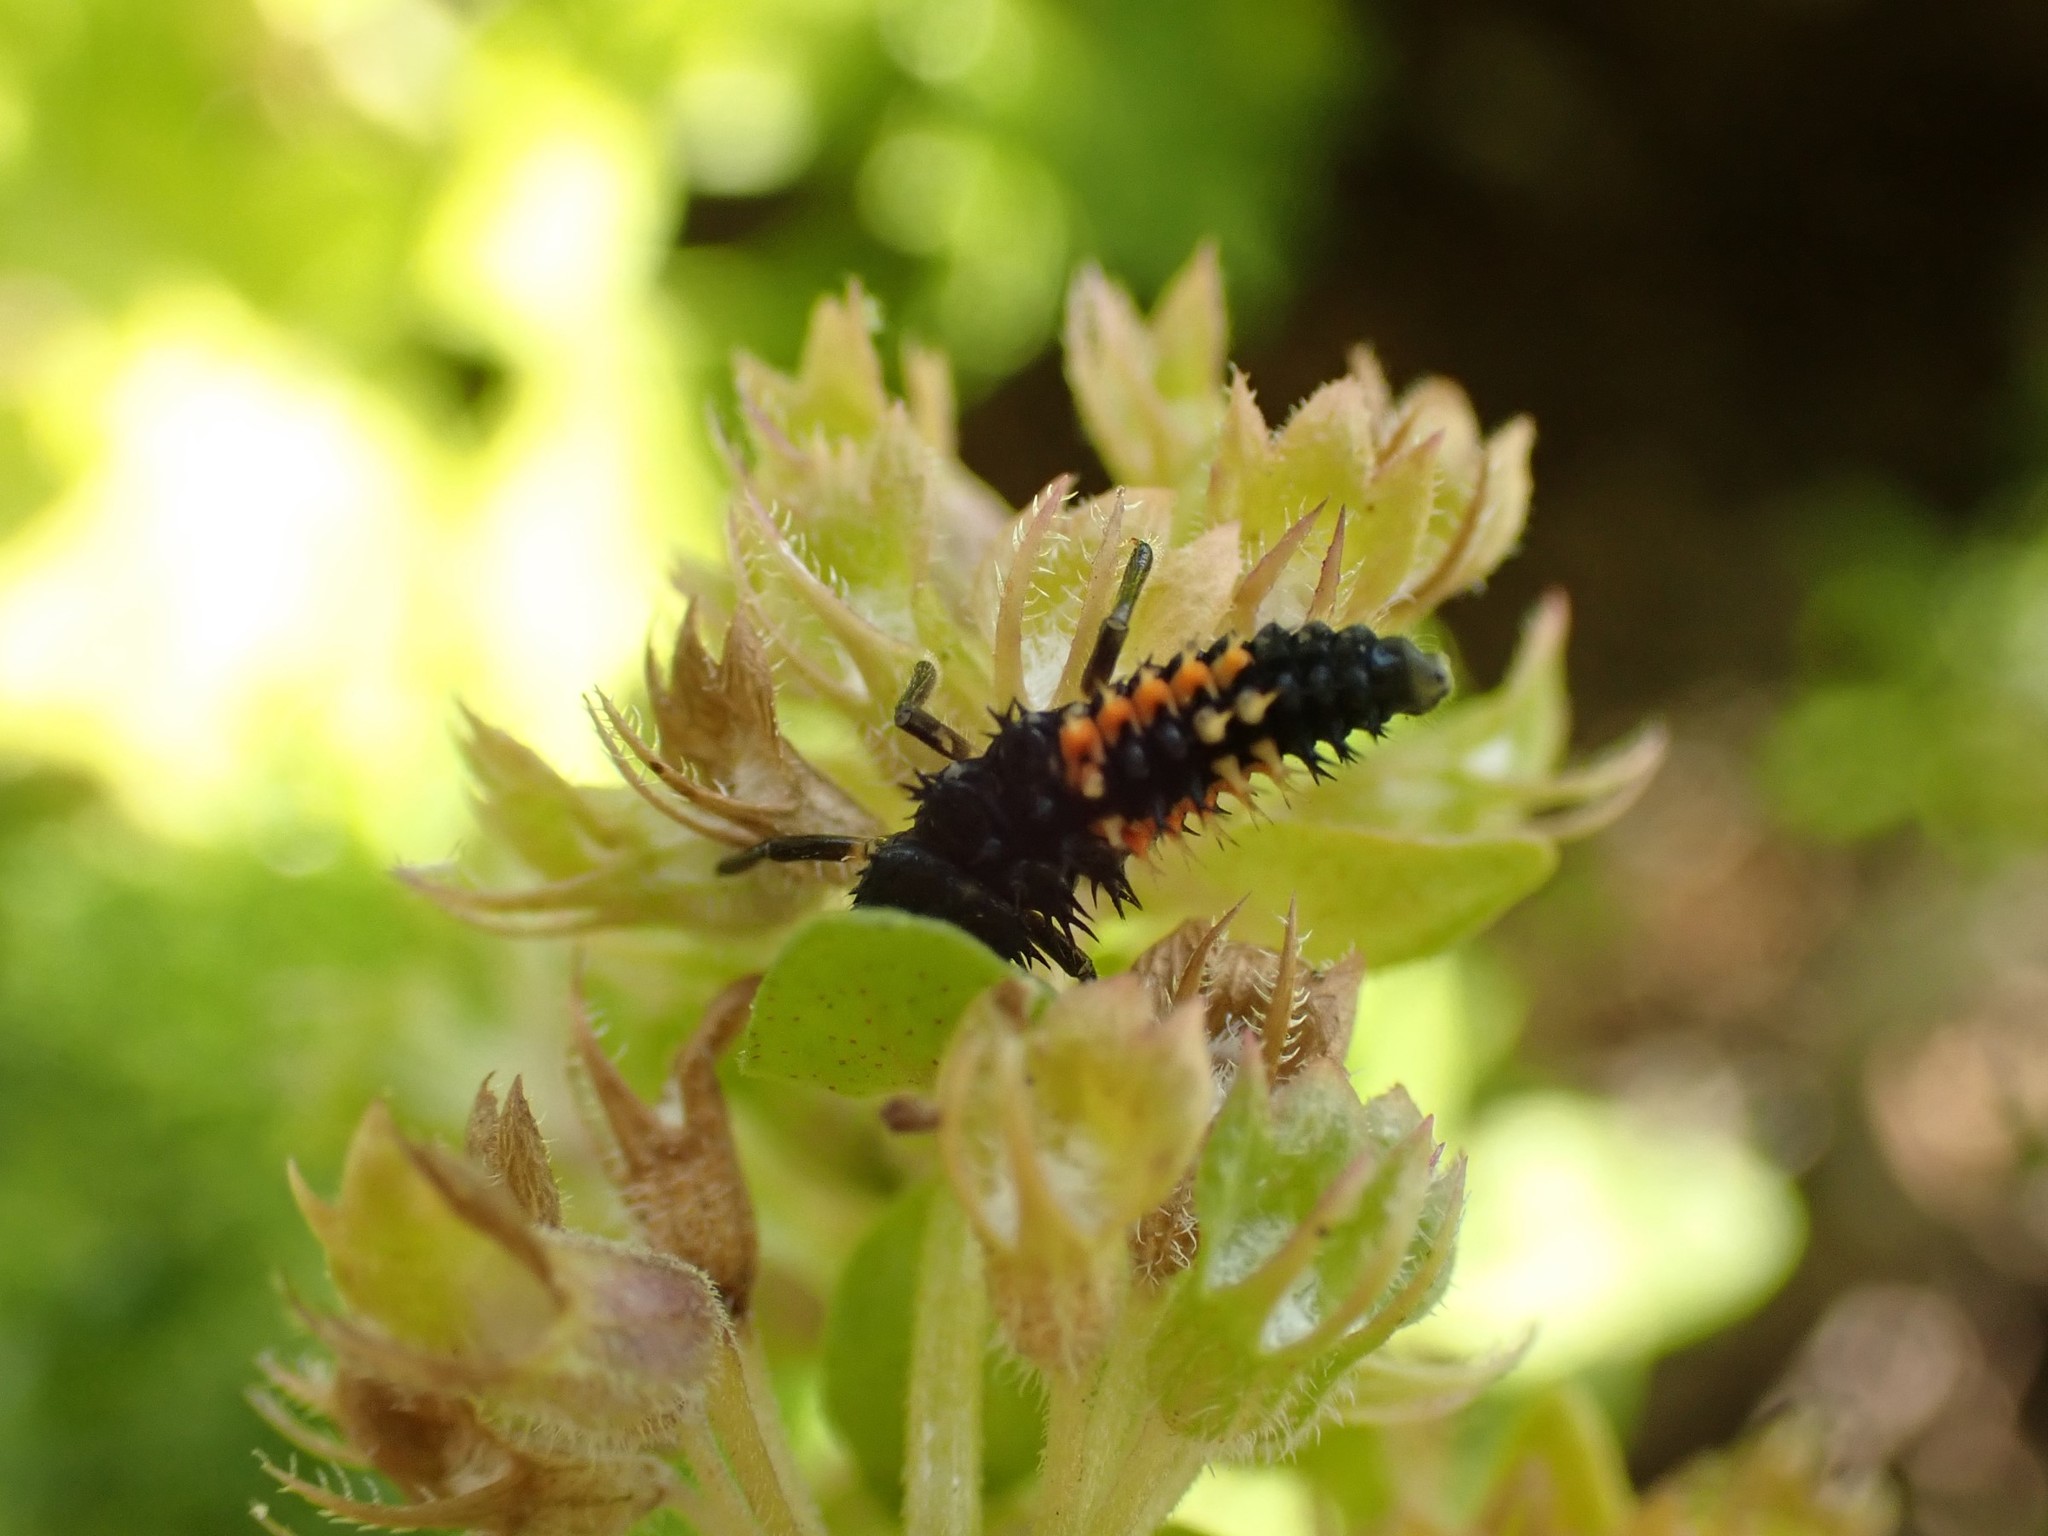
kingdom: Animalia
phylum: Arthropoda
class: Insecta
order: Coleoptera
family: Coccinellidae
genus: Harmonia
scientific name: Harmonia axyridis
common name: Harlequin ladybird
